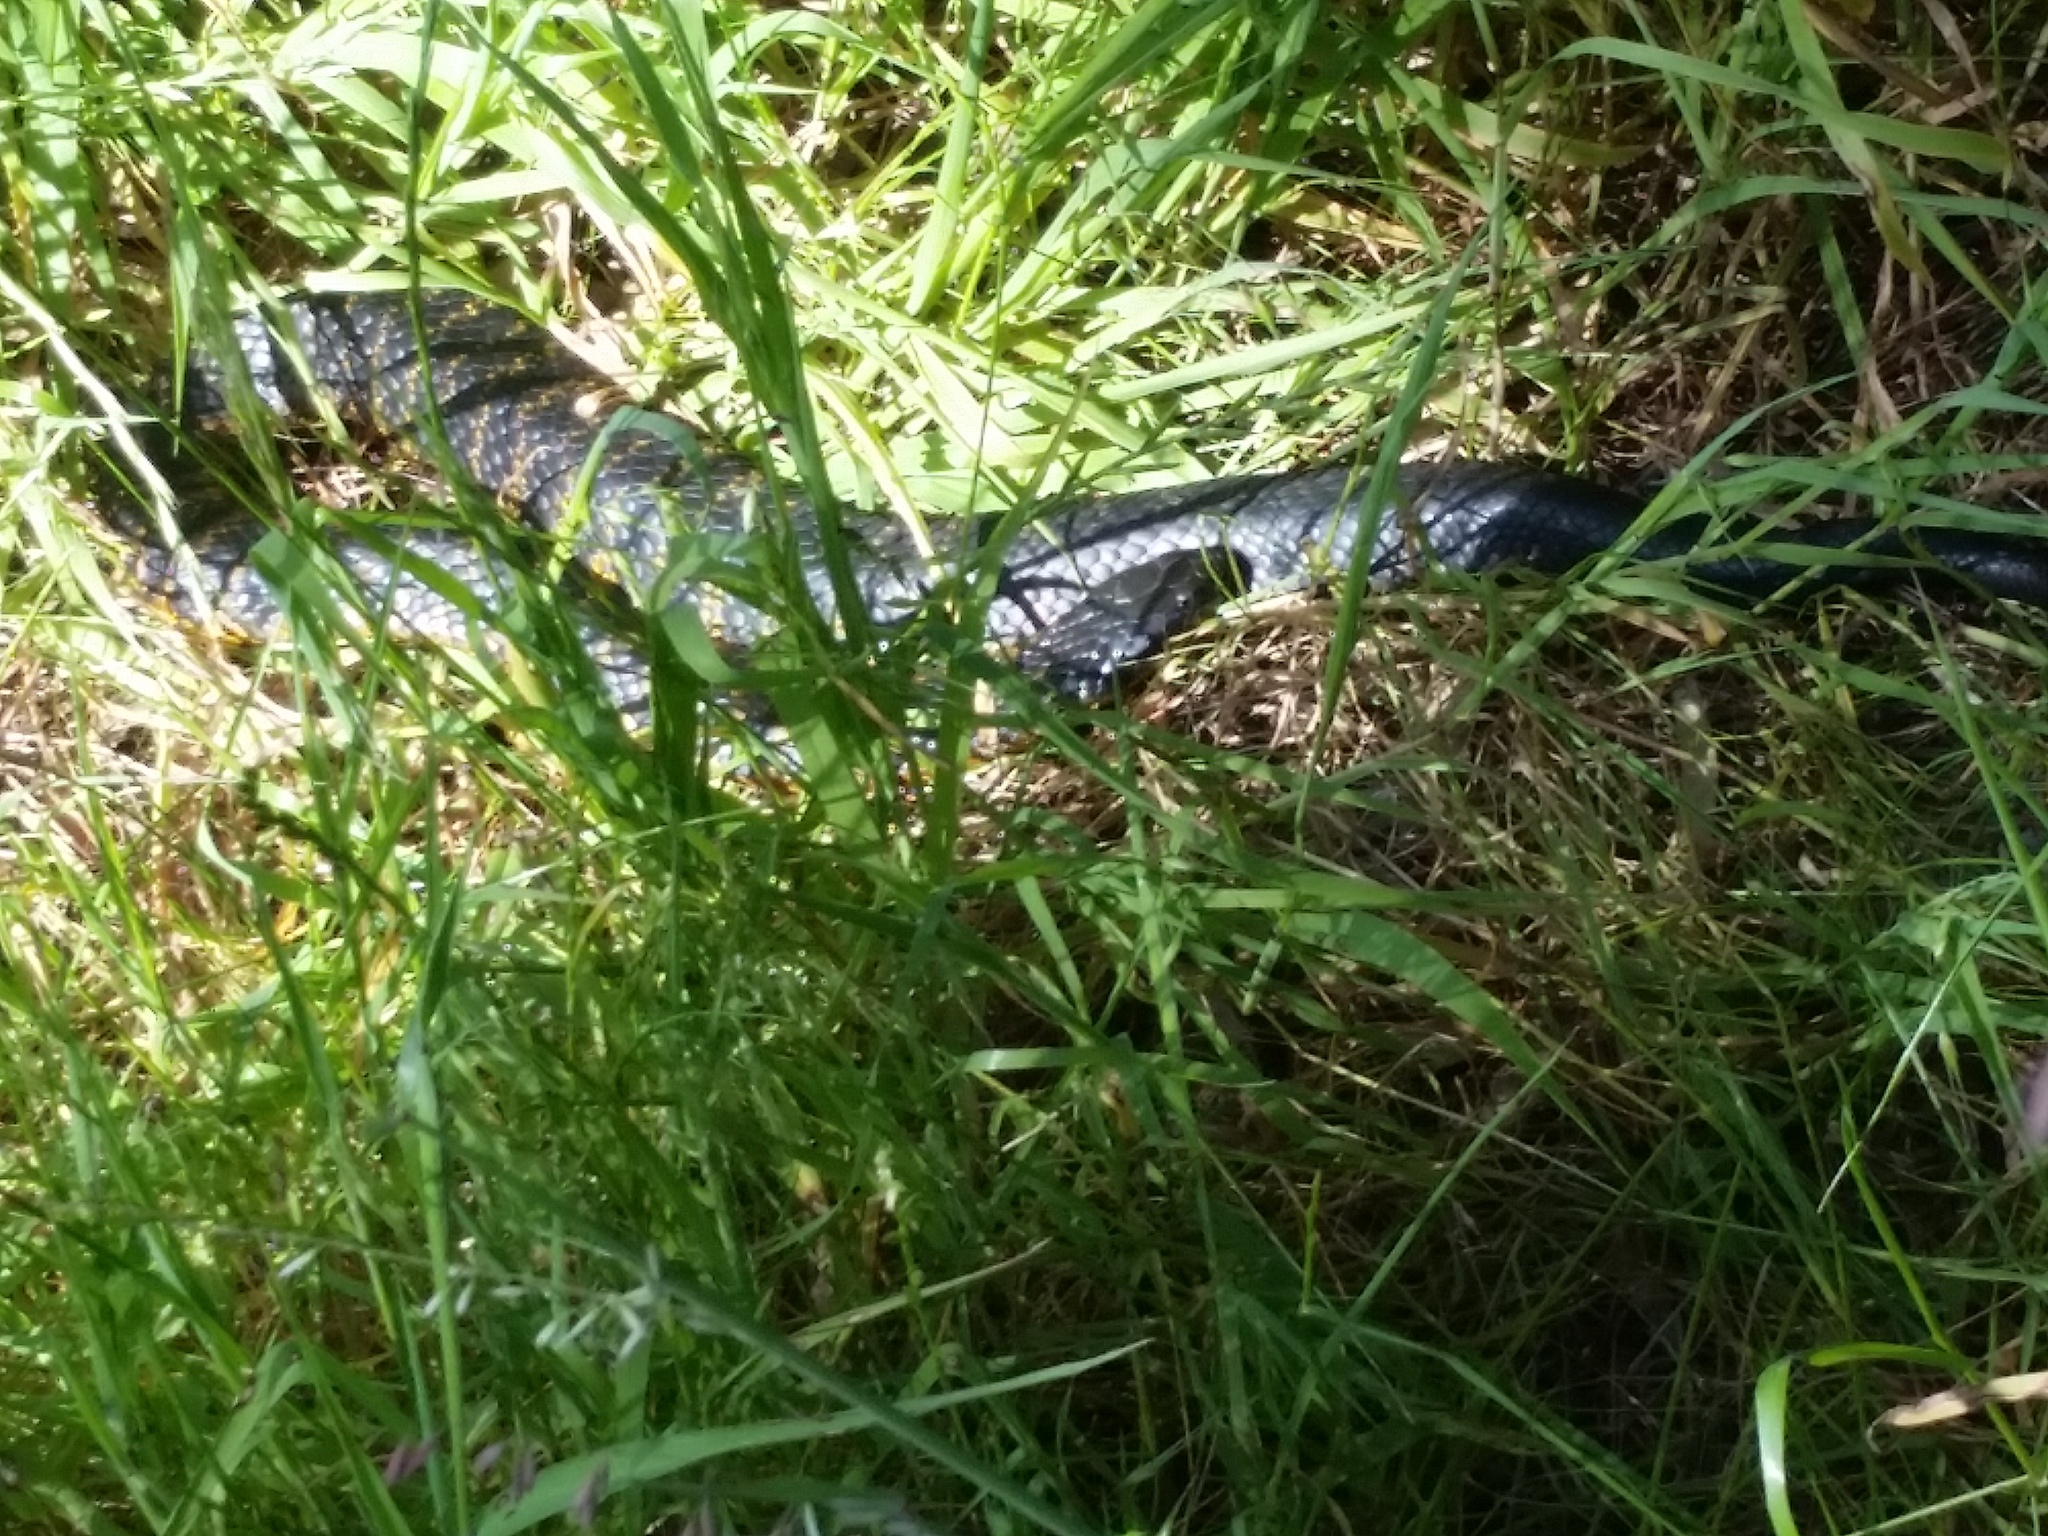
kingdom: Animalia
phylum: Chordata
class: Squamata
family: Elapidae
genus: Notechis
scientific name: Notechis scutatus
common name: Mainland tiger snake
